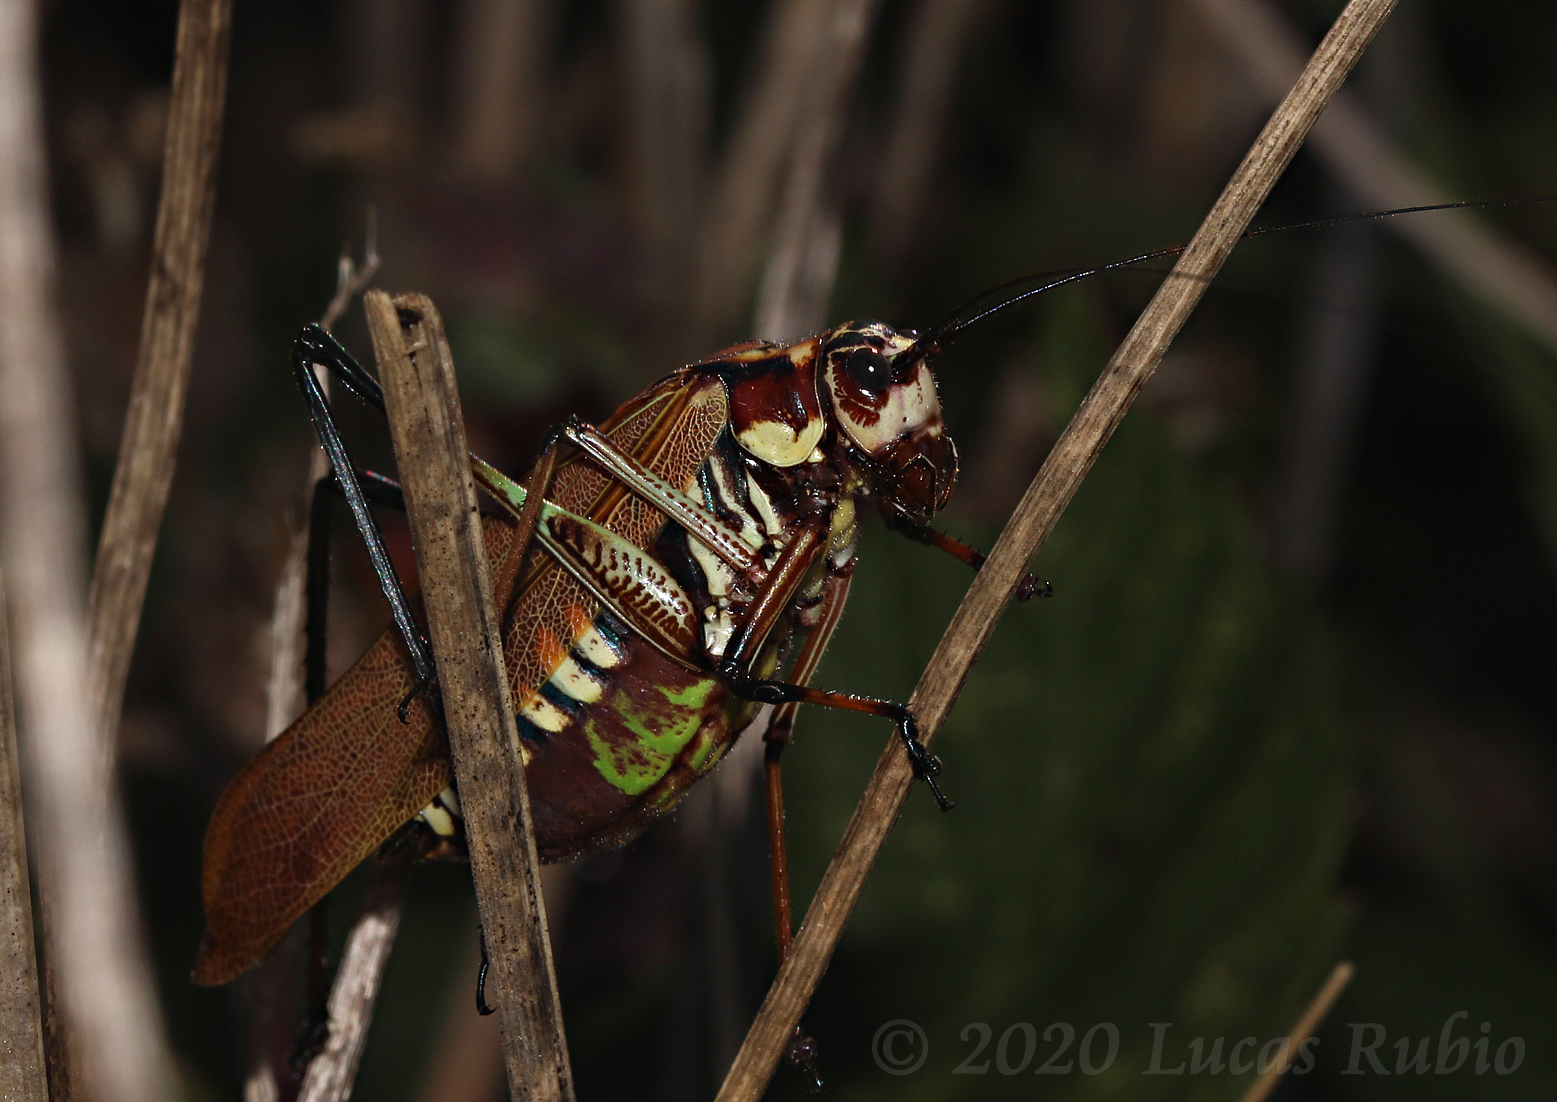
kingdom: Animalia
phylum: Arthropoda
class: Insecta
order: Orthoptera
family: Tettigoniidae
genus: Scaphura
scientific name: Scaphura elegans
